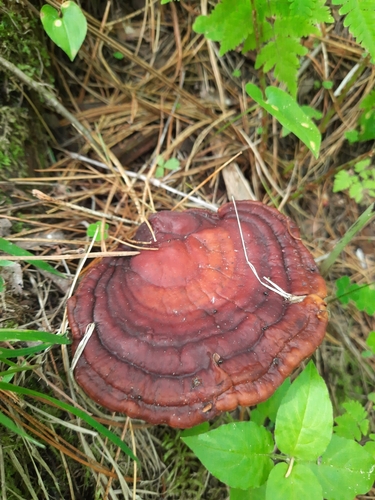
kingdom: Fungi
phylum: Basidiomycota
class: Agaricomycetes
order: Polyporales
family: Polyporaceae
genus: Ganoderma
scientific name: Ganoderma lucidum
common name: Lacquered bracket
